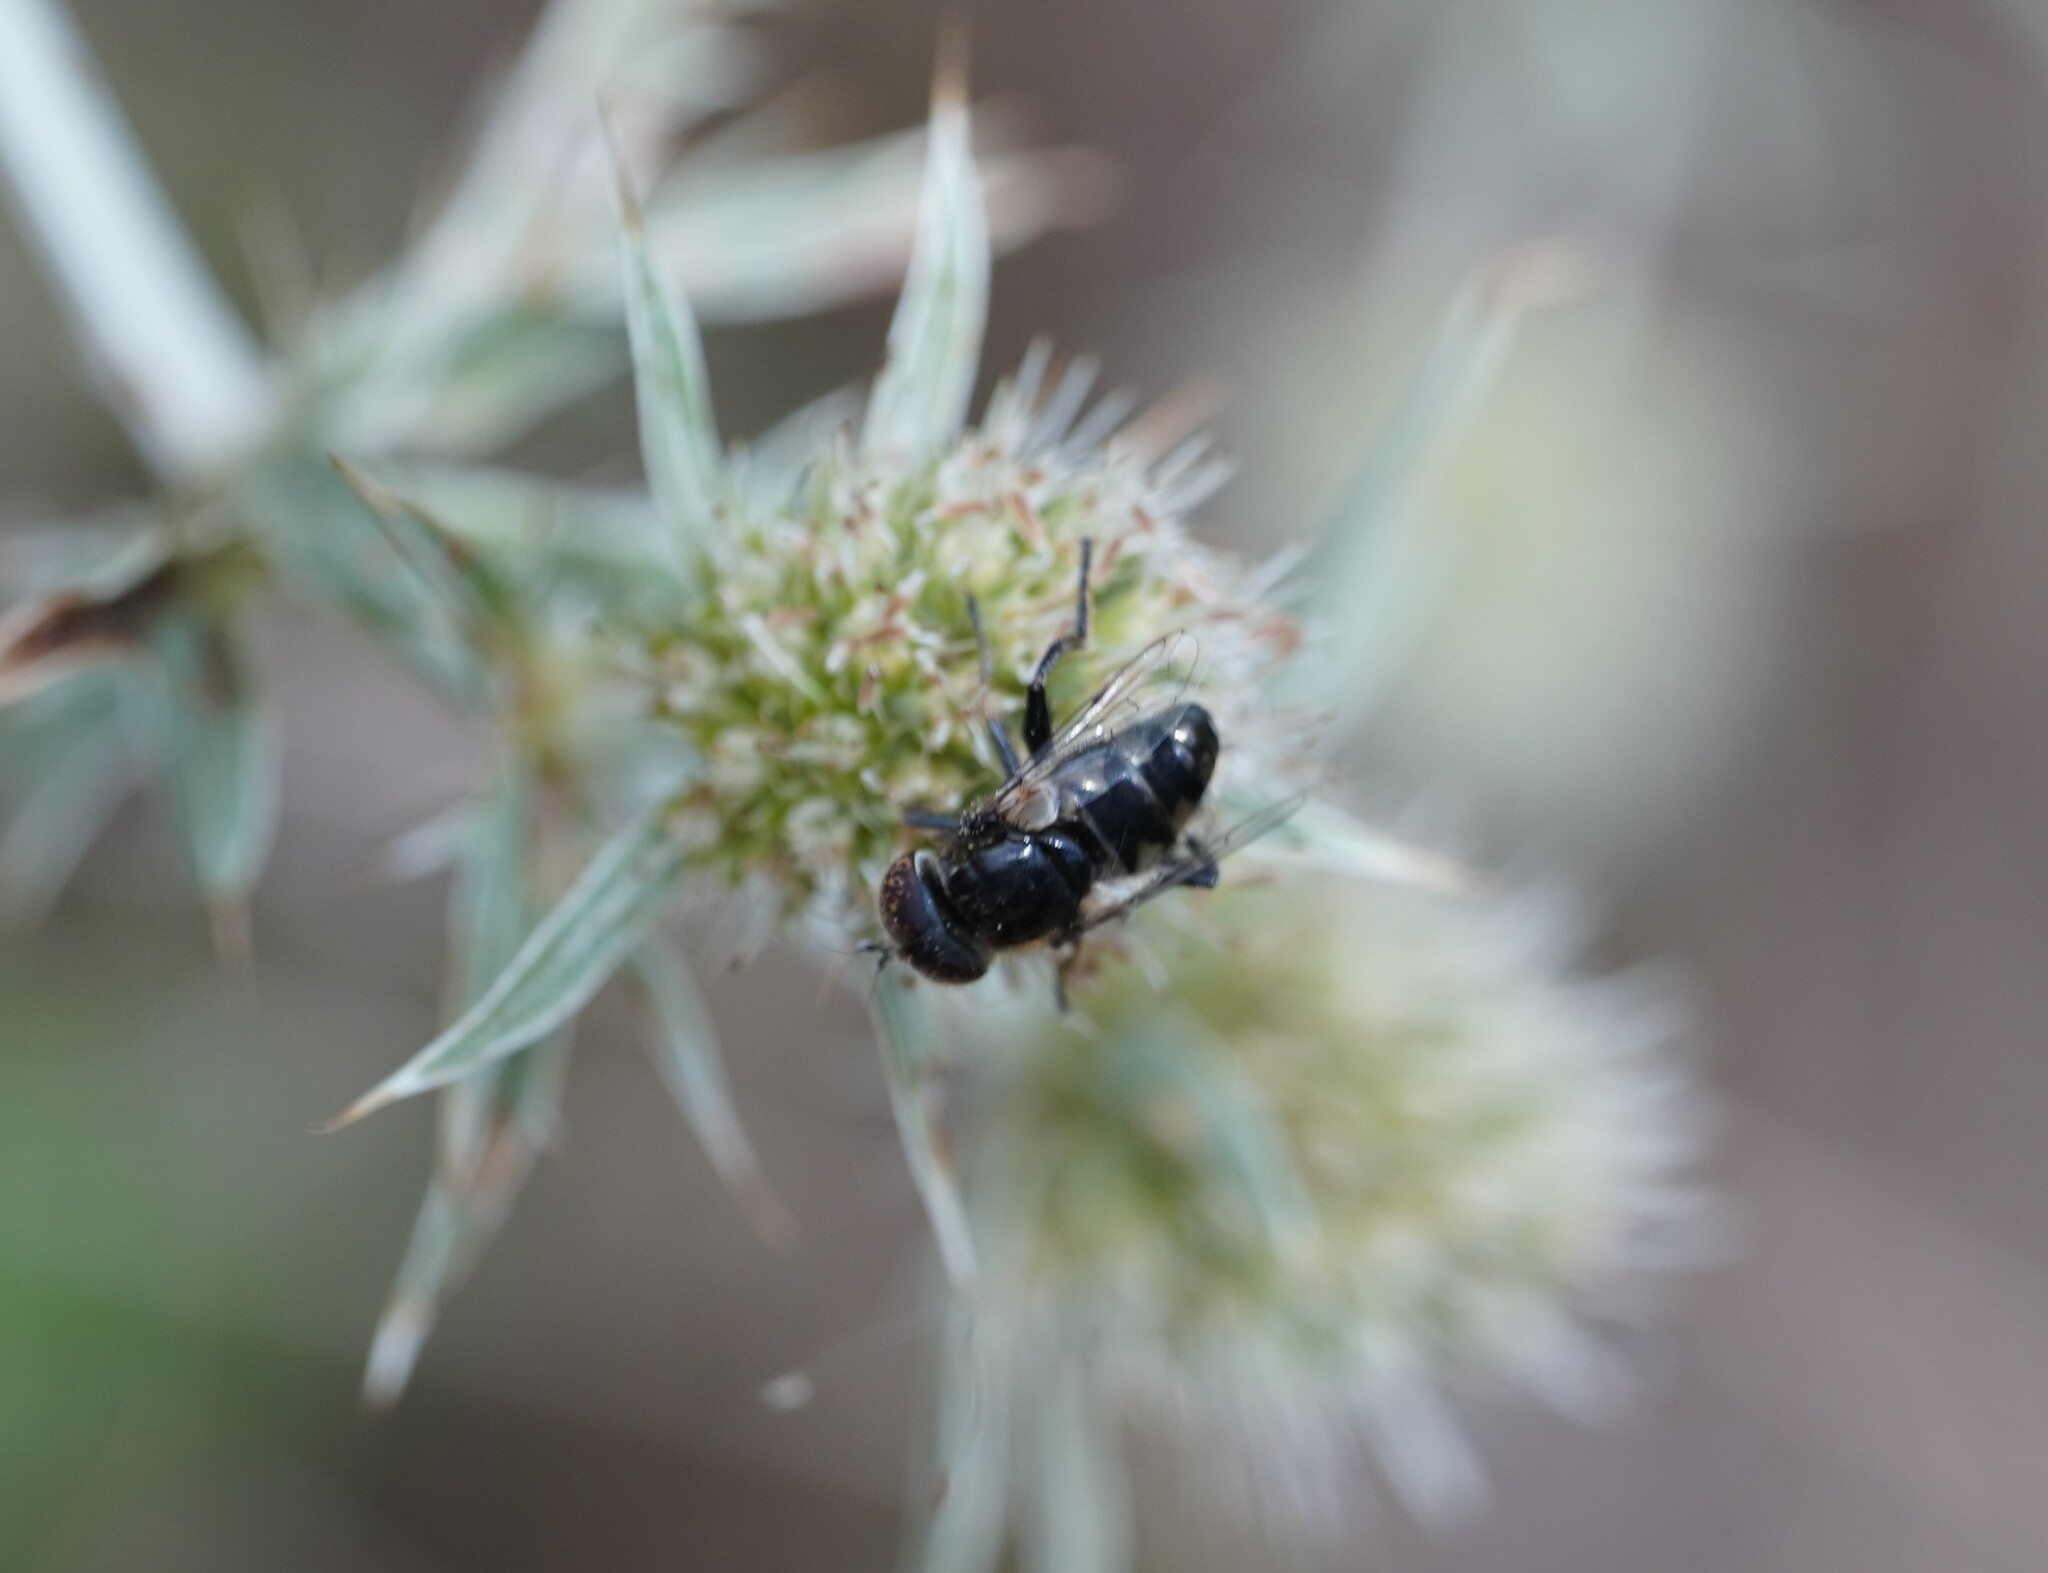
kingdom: Animalia
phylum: Arthropoda
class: Insecta
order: Diptera
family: Syrphidae
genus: Eristalinus
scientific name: Eristalinus sepulchralis
